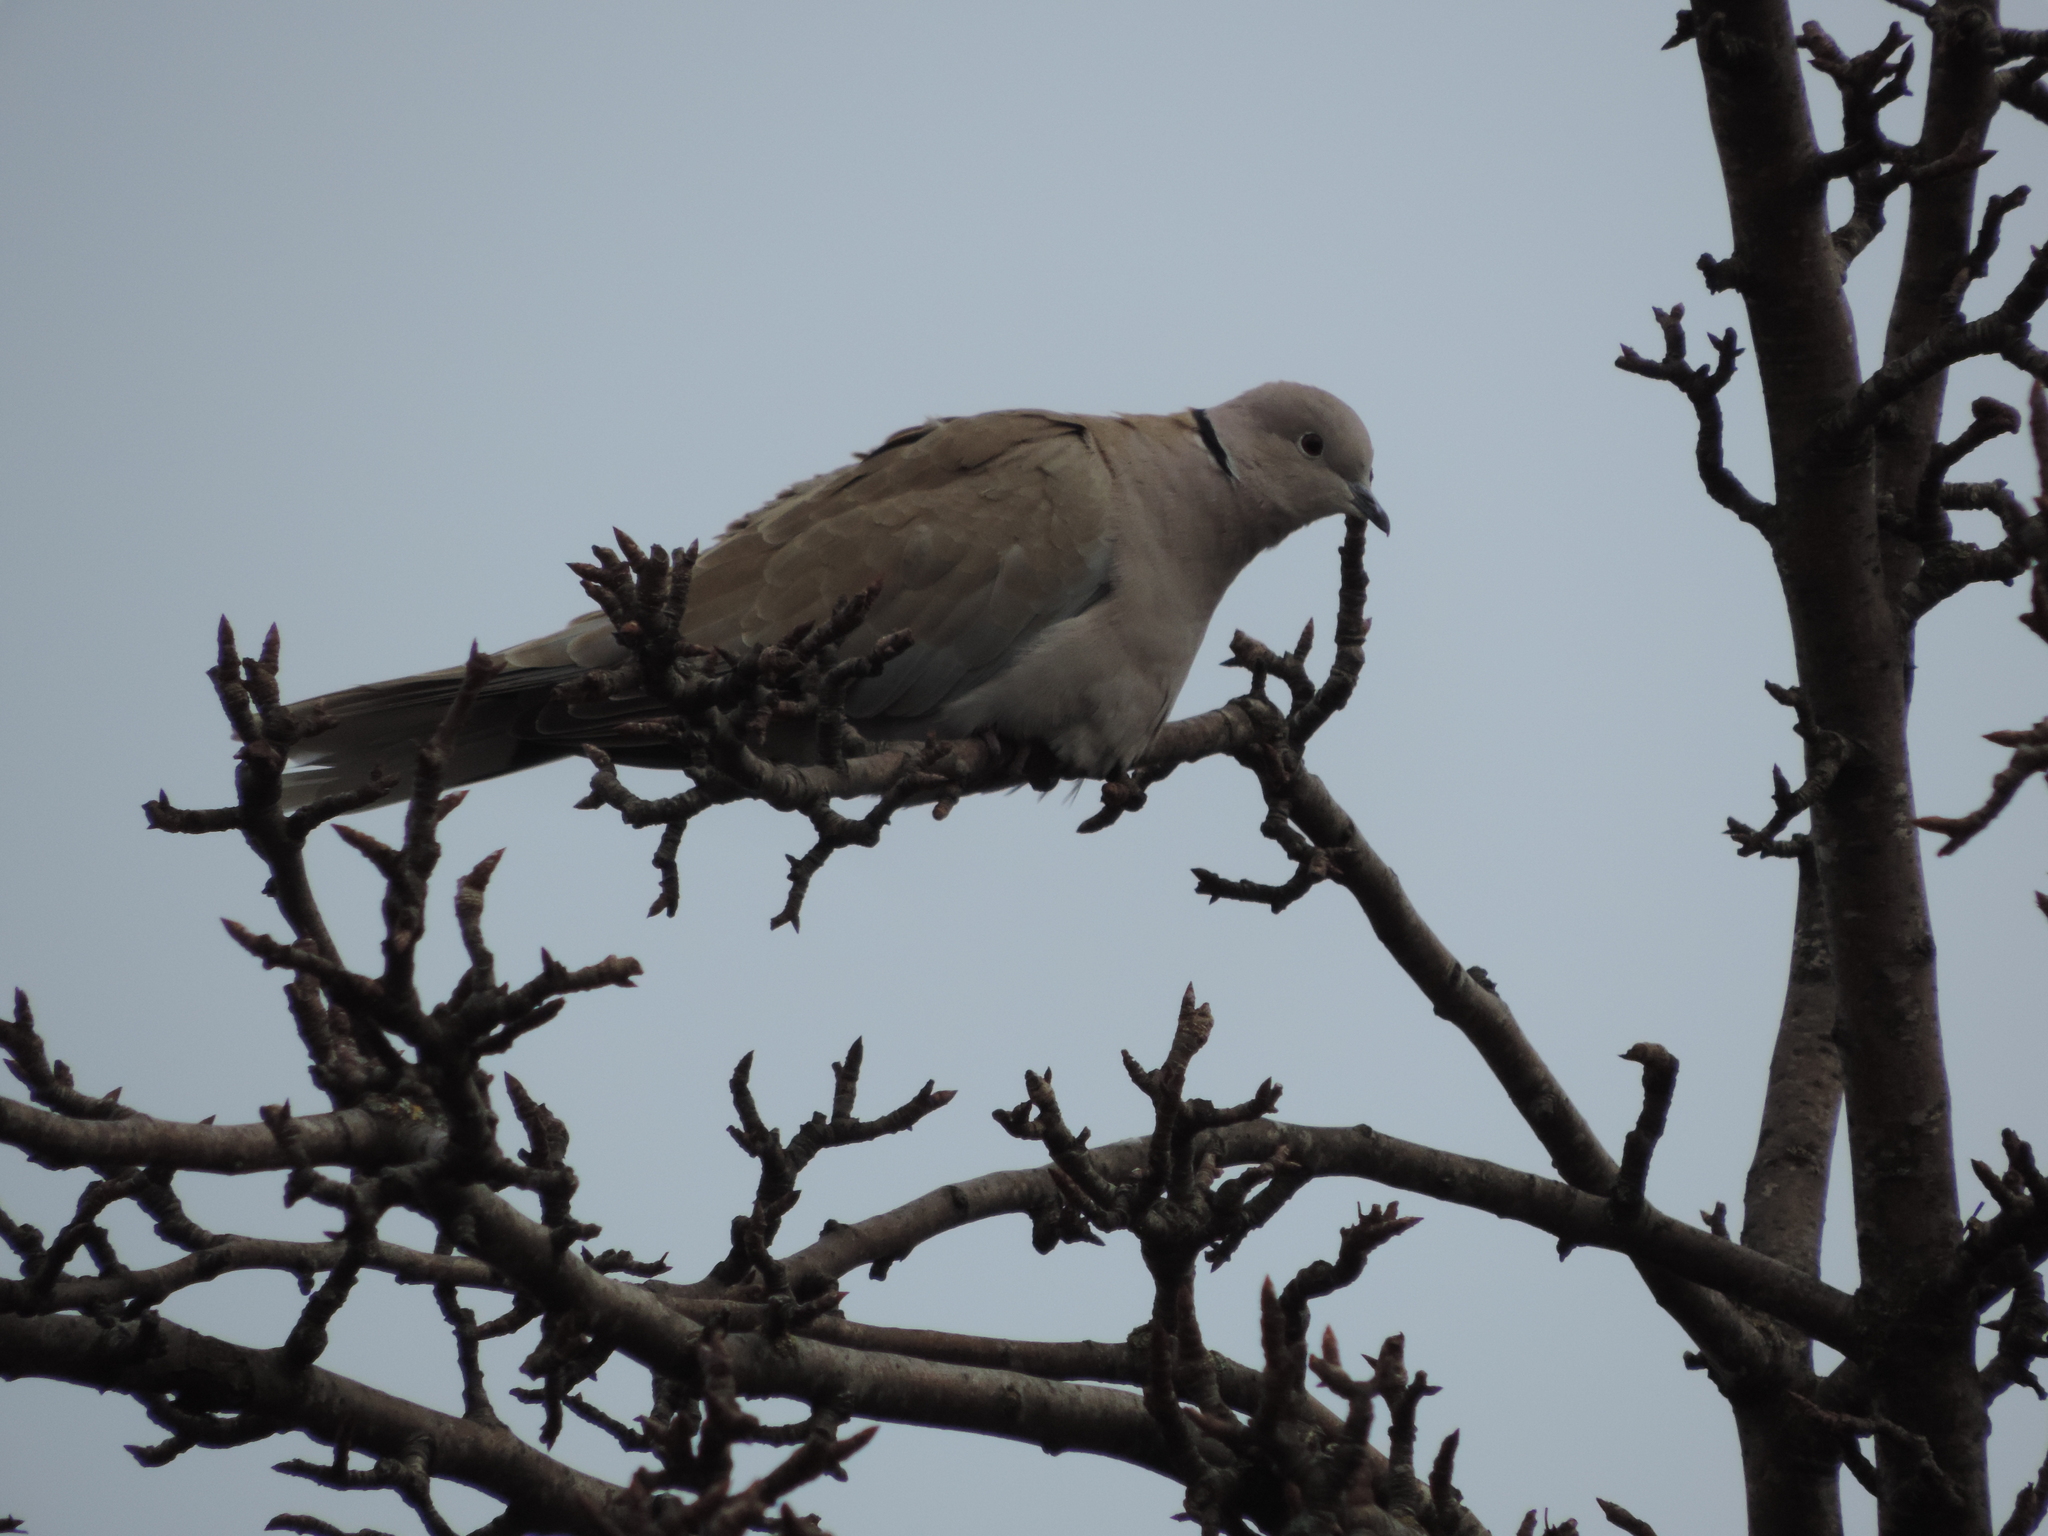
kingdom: Animalia
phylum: Chordata
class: Aves
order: Columbiformes
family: Columbidae
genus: Streptopelia
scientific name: Streptopelia decaocto
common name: Eurasian collared dove
